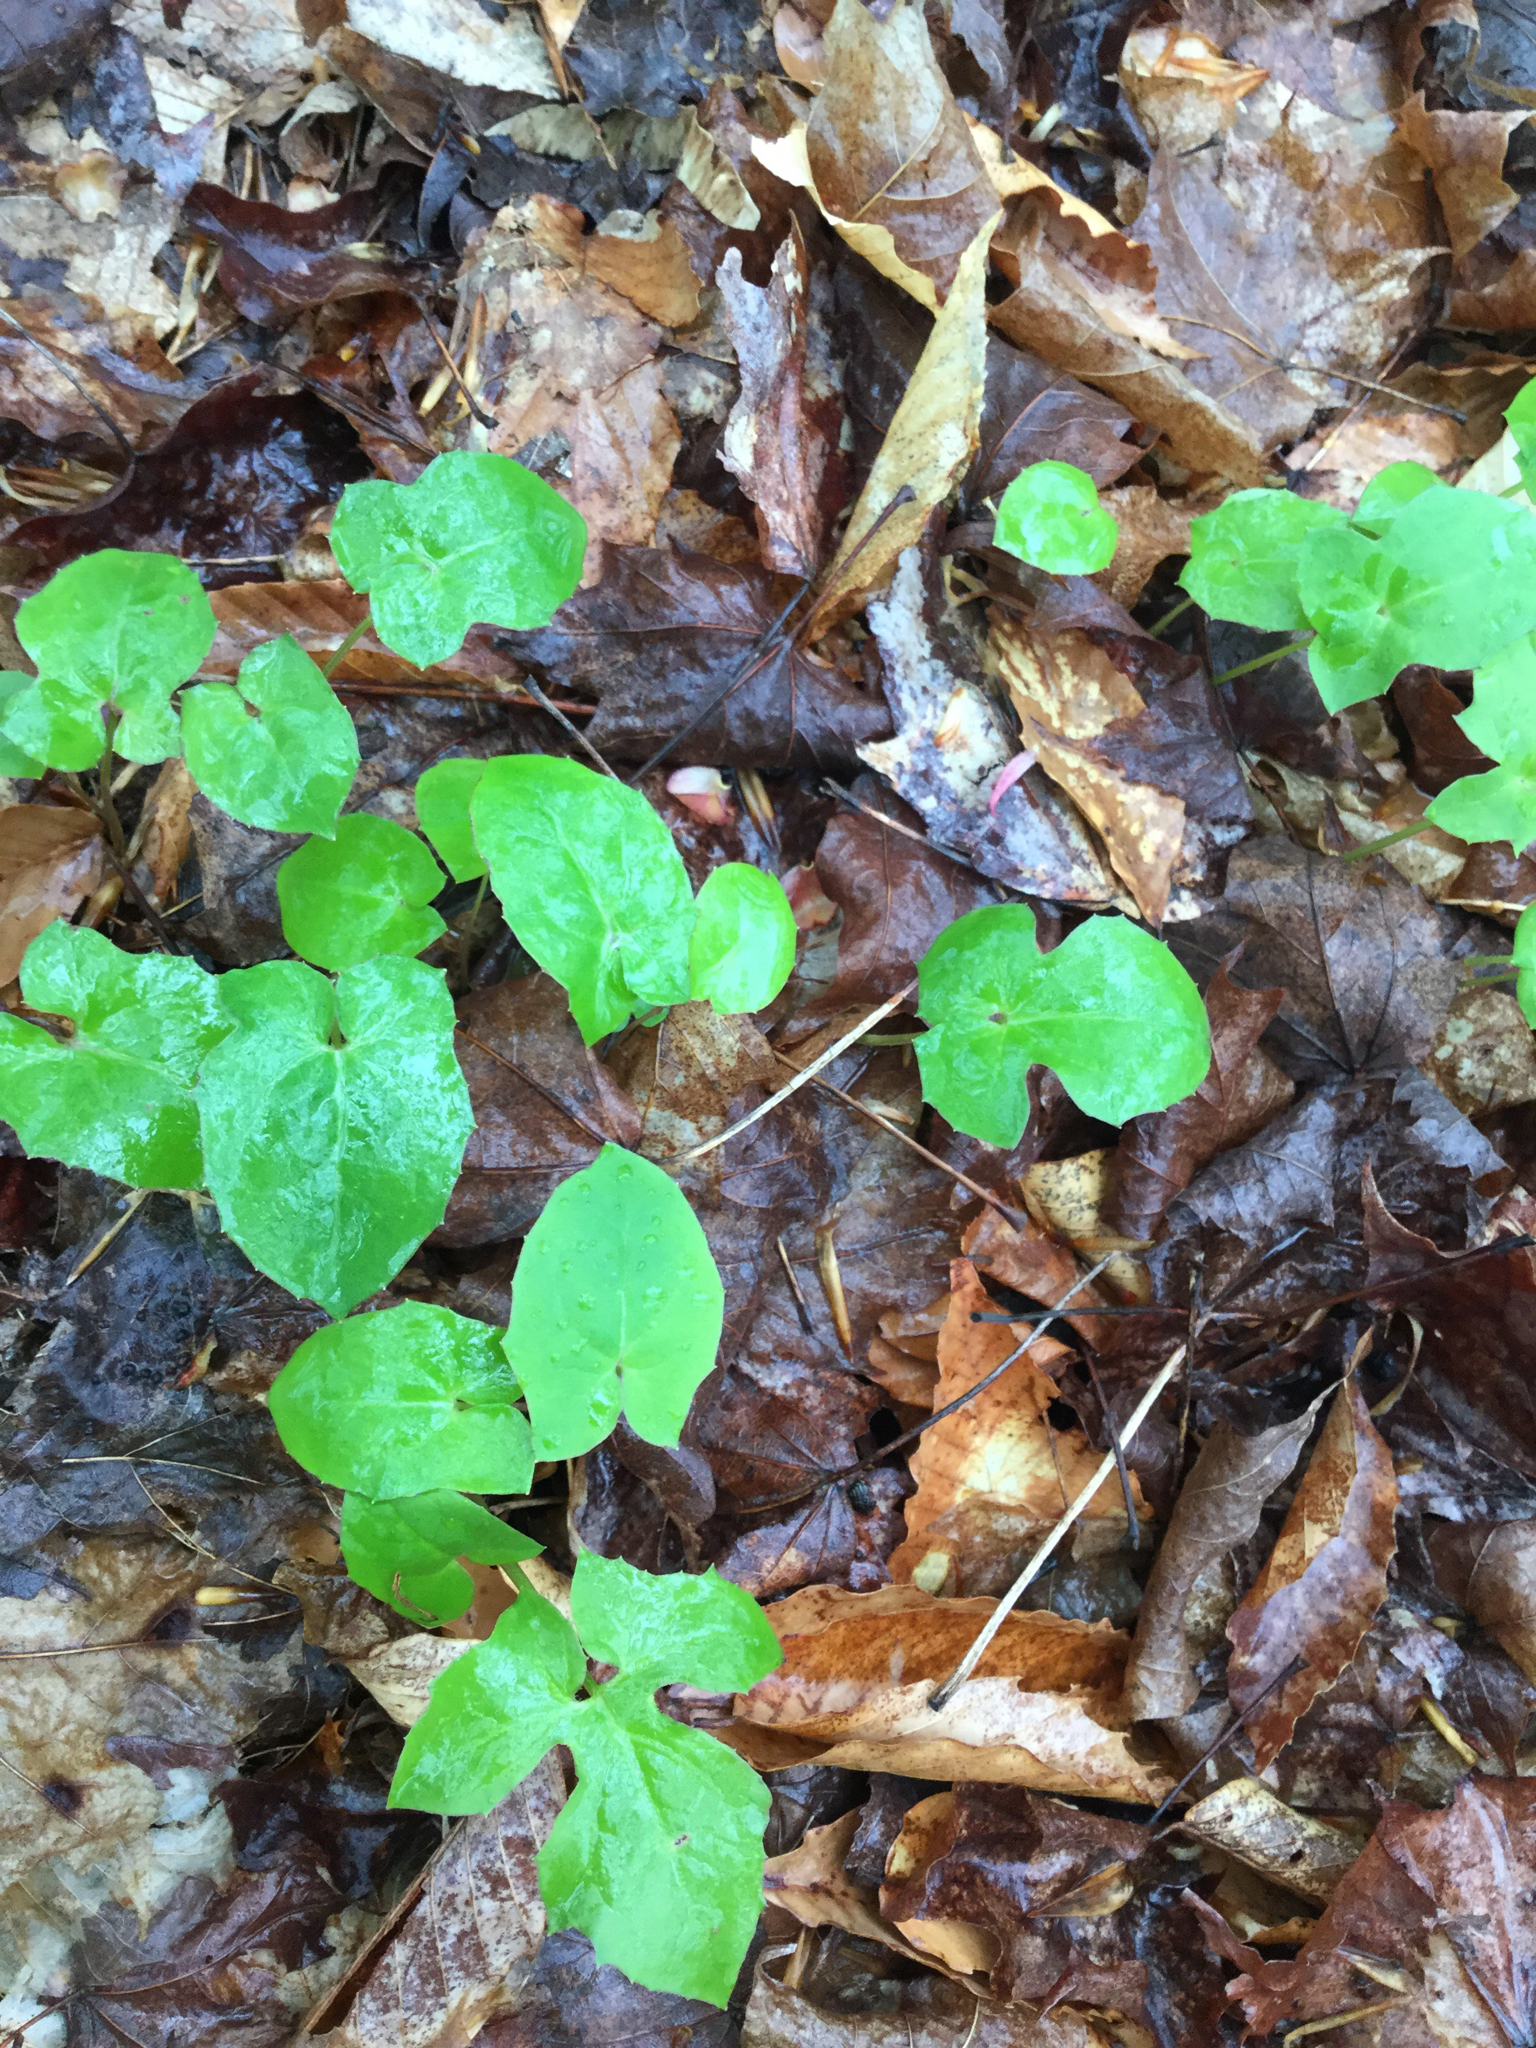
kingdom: Plantae
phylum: Tracheophyta
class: Magnoliopsida
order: Asterales
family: Asteraceae
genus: Nabalus
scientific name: Nabalus
